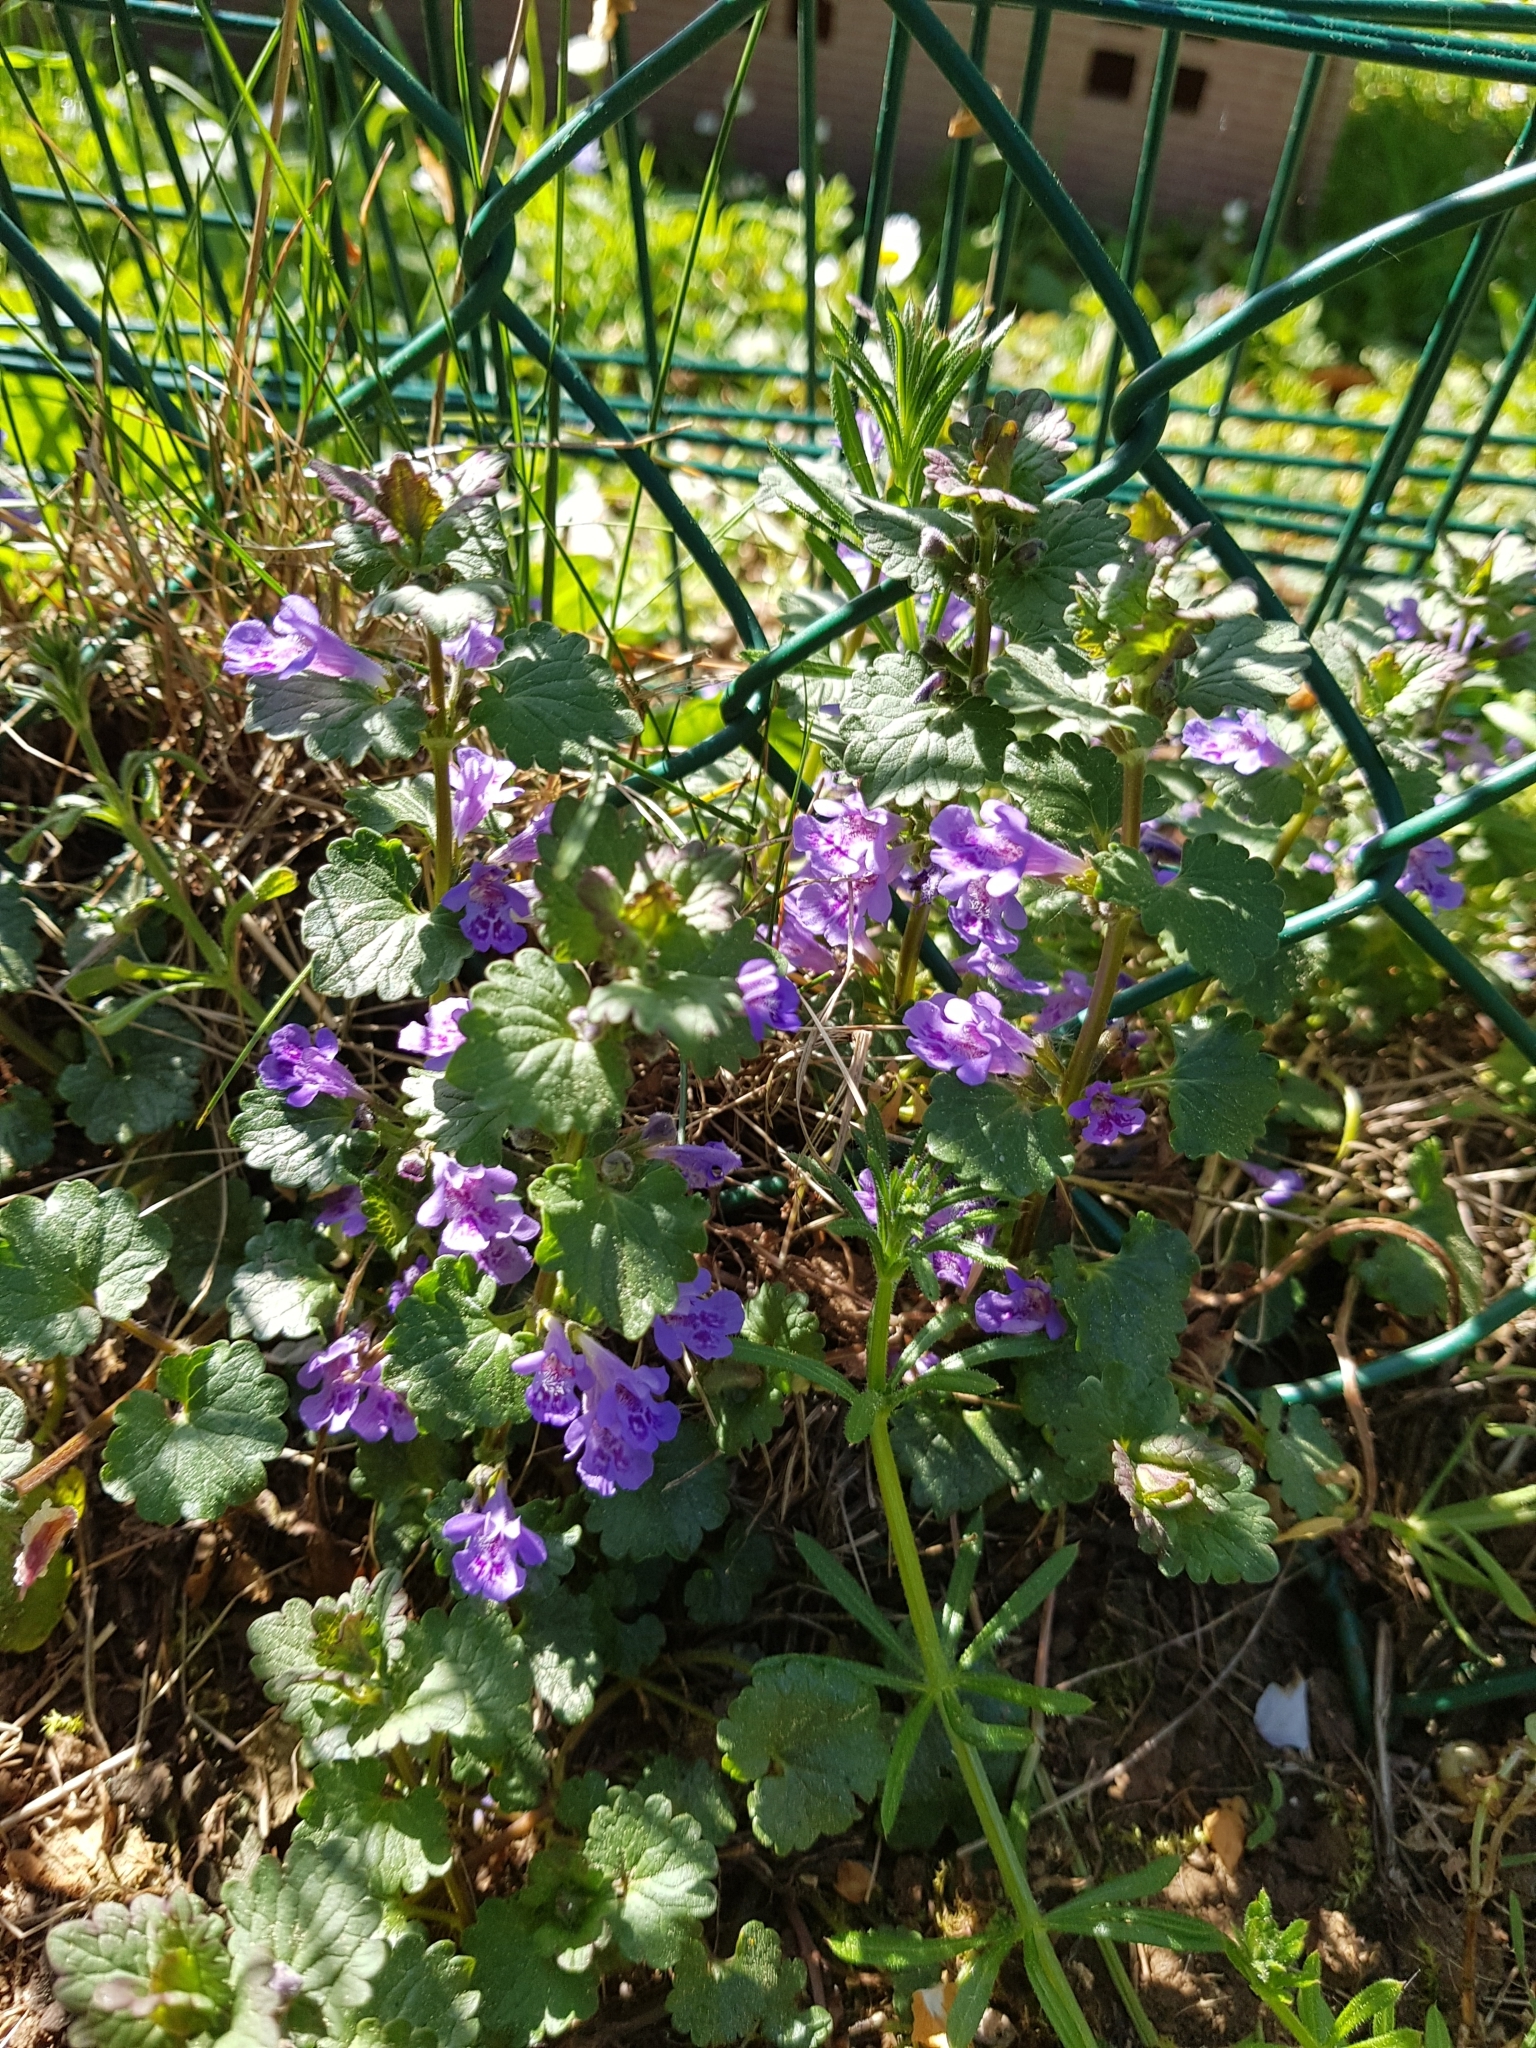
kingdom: Plantae
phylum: Tracheophyta
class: Magnoliopsida
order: Lamiales
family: Lamiaceae
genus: Glechoma
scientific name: Glechoma hederacea
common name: Ground ivy
